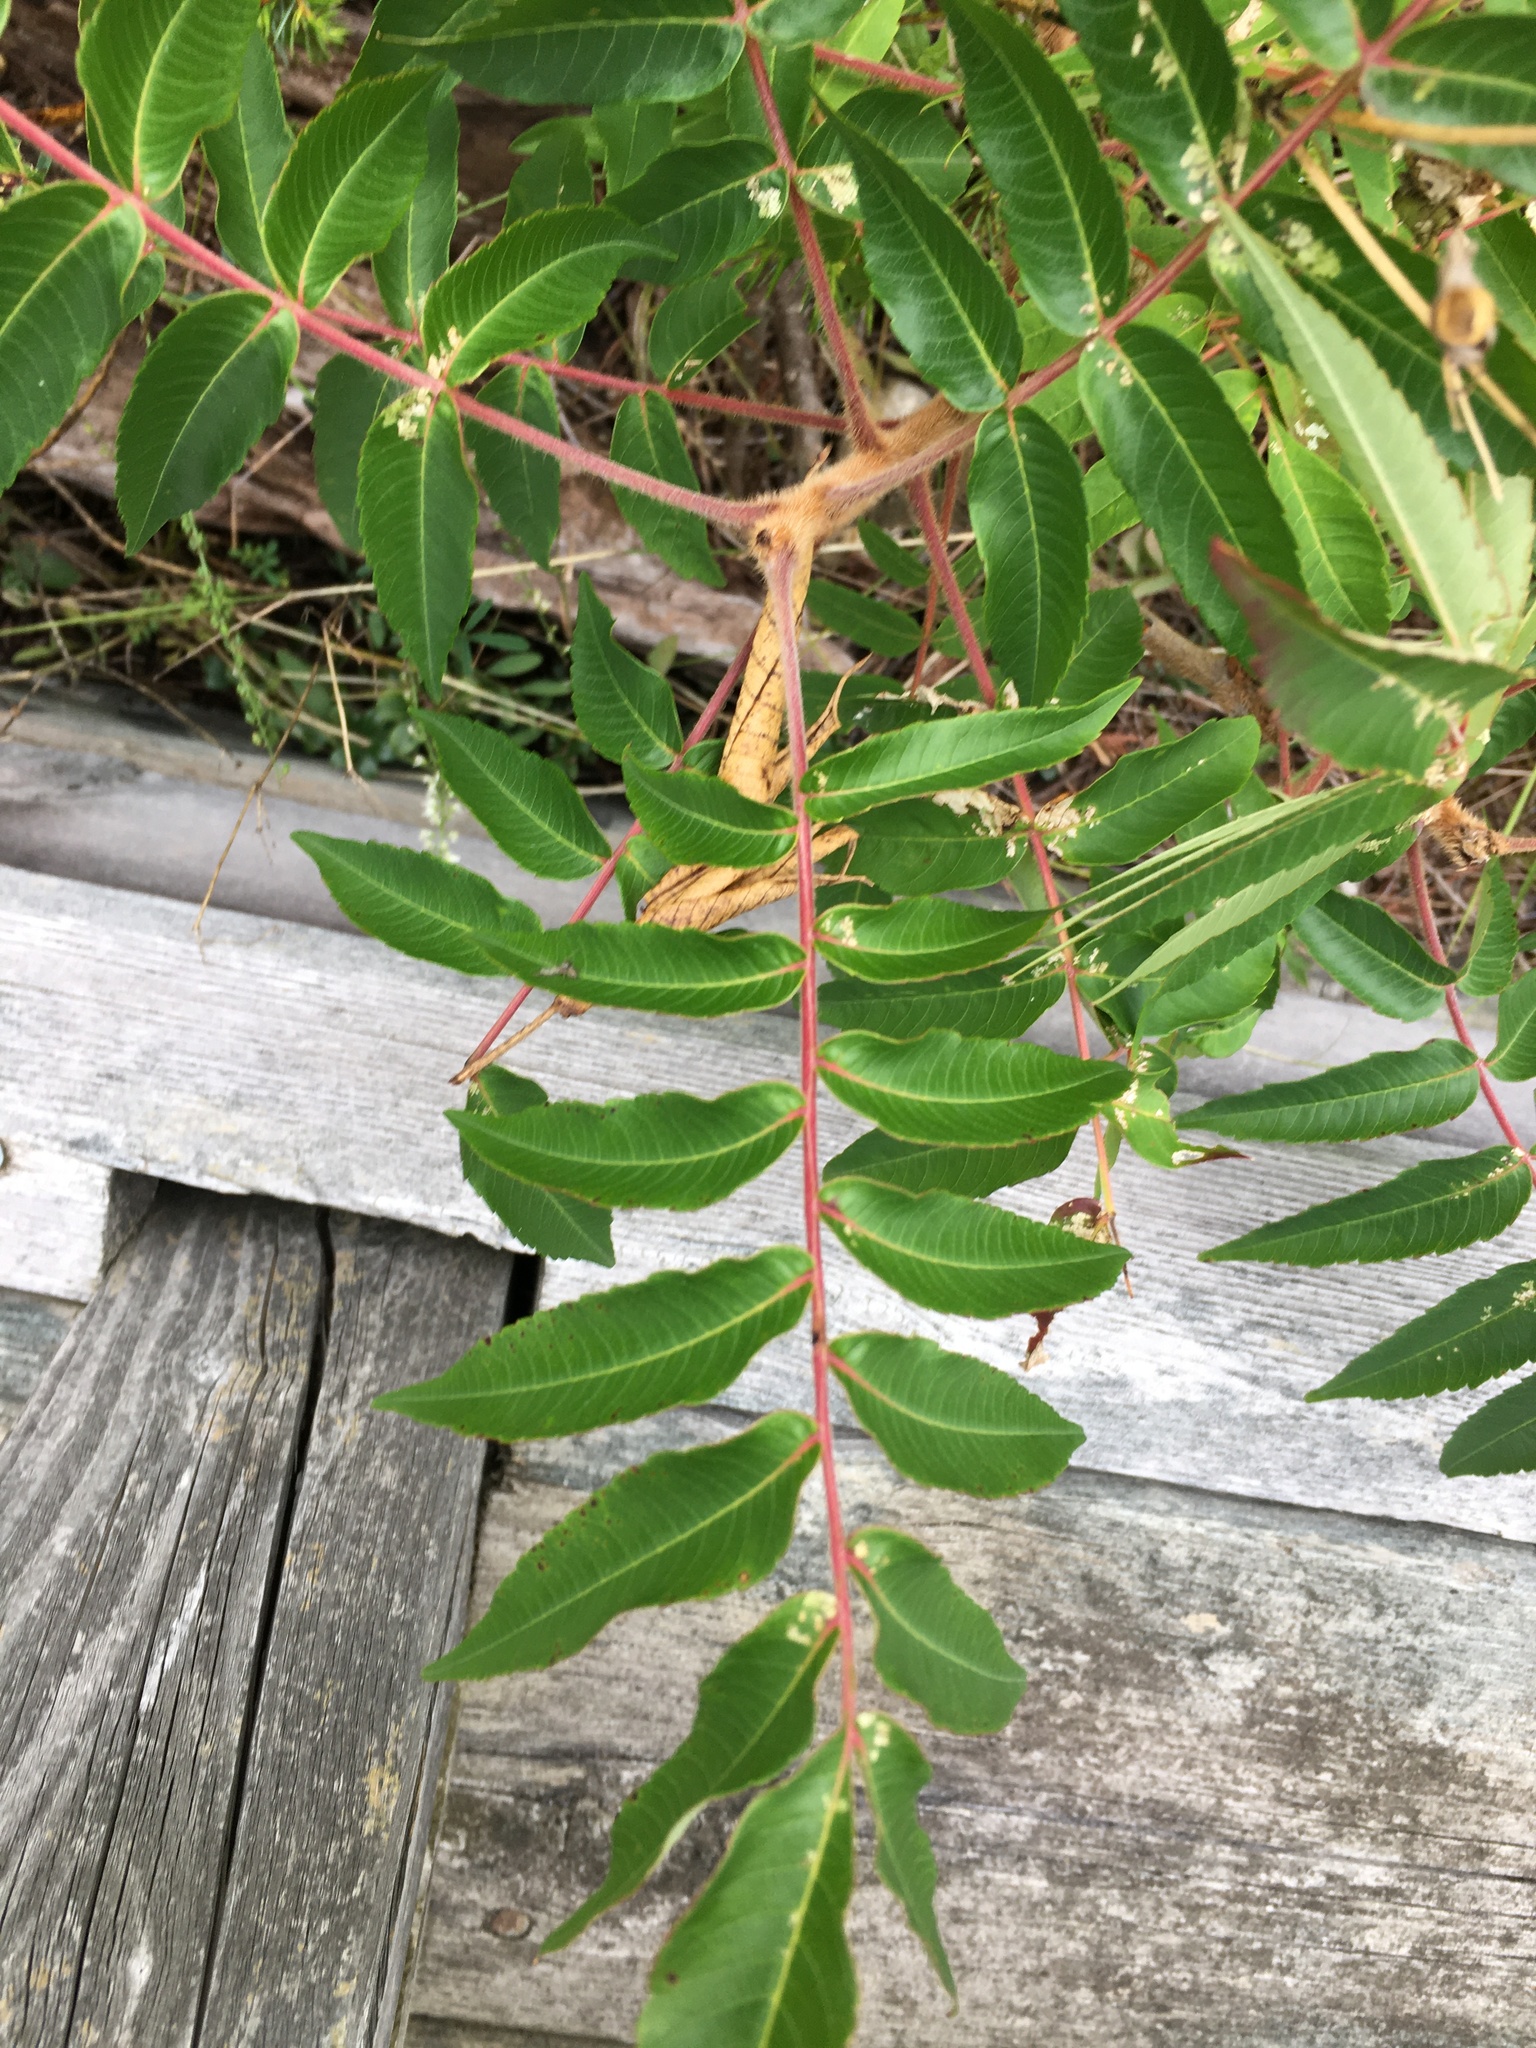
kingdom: Plantae
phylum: Tracheophyta
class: Magnoliopsida
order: Sapindales
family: Anacardiaceae
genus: Rhus
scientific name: Rhus typhina
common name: Staghorn sumac
